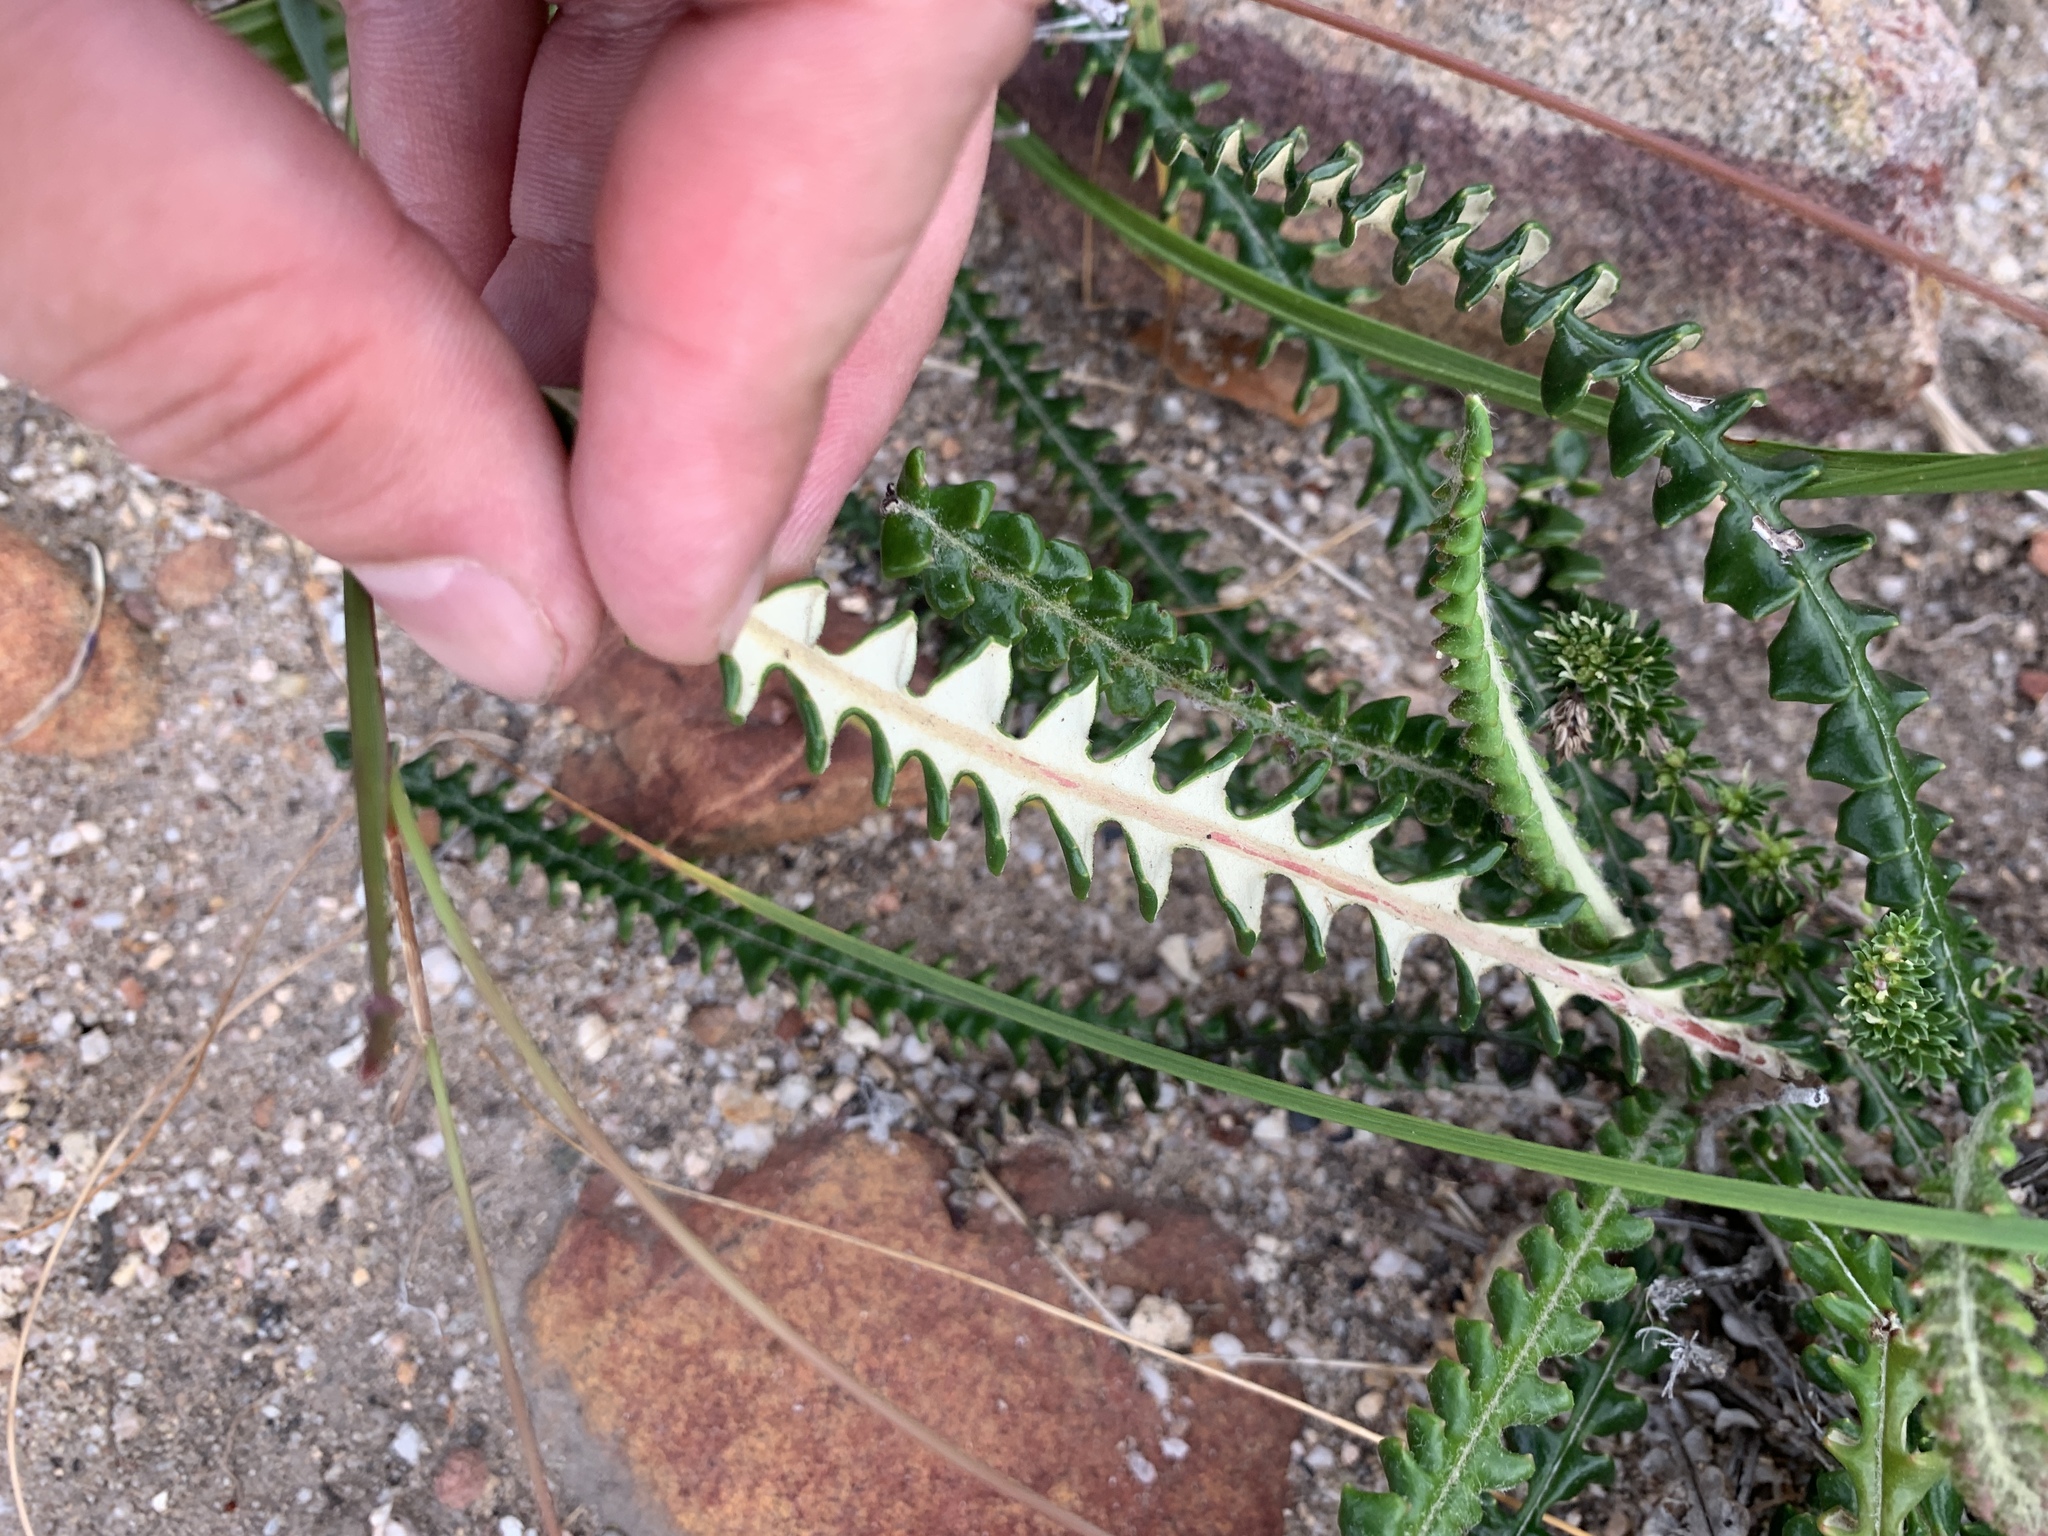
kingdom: Plantae
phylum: Tracheophyta
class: Magnoliopsida
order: Asterales
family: Asteraceae
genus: Gerbera
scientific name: Gerbera linnaei
